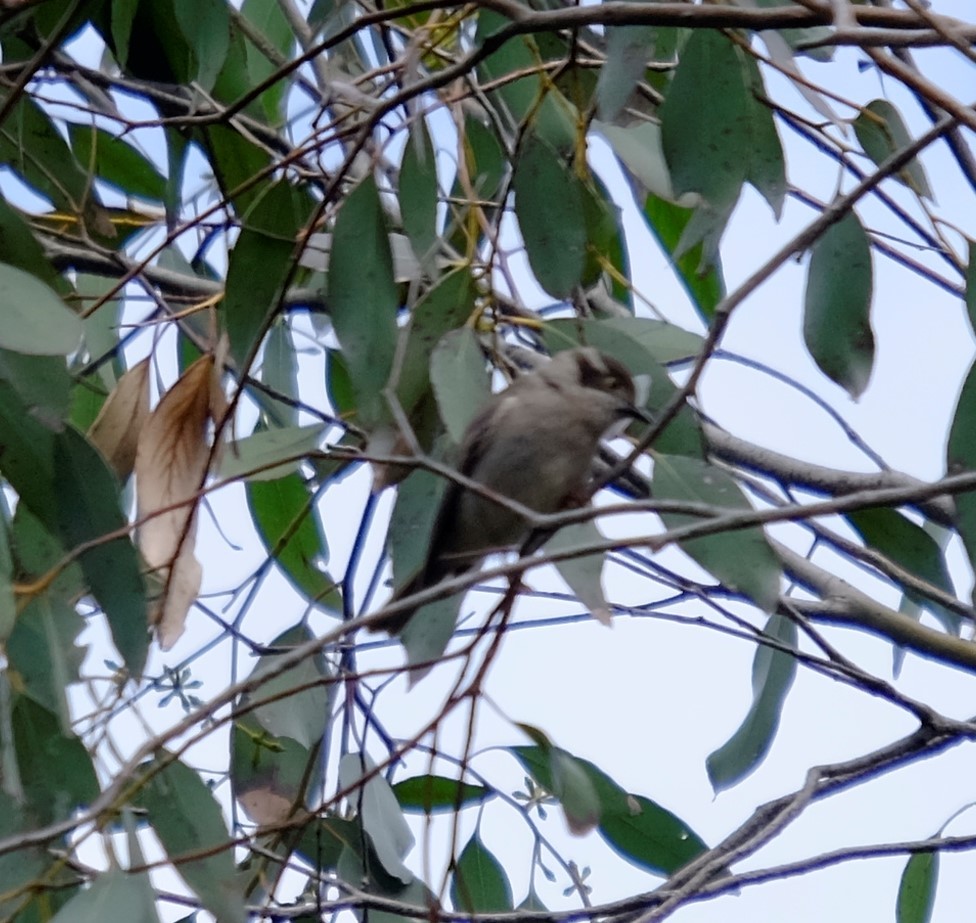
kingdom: Animalia
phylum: Chordata
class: Aves
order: Passeriformes
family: Meliphagidae
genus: Melithreptus
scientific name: Melithreptus brevirostris
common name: Brown-headed honeyeater
